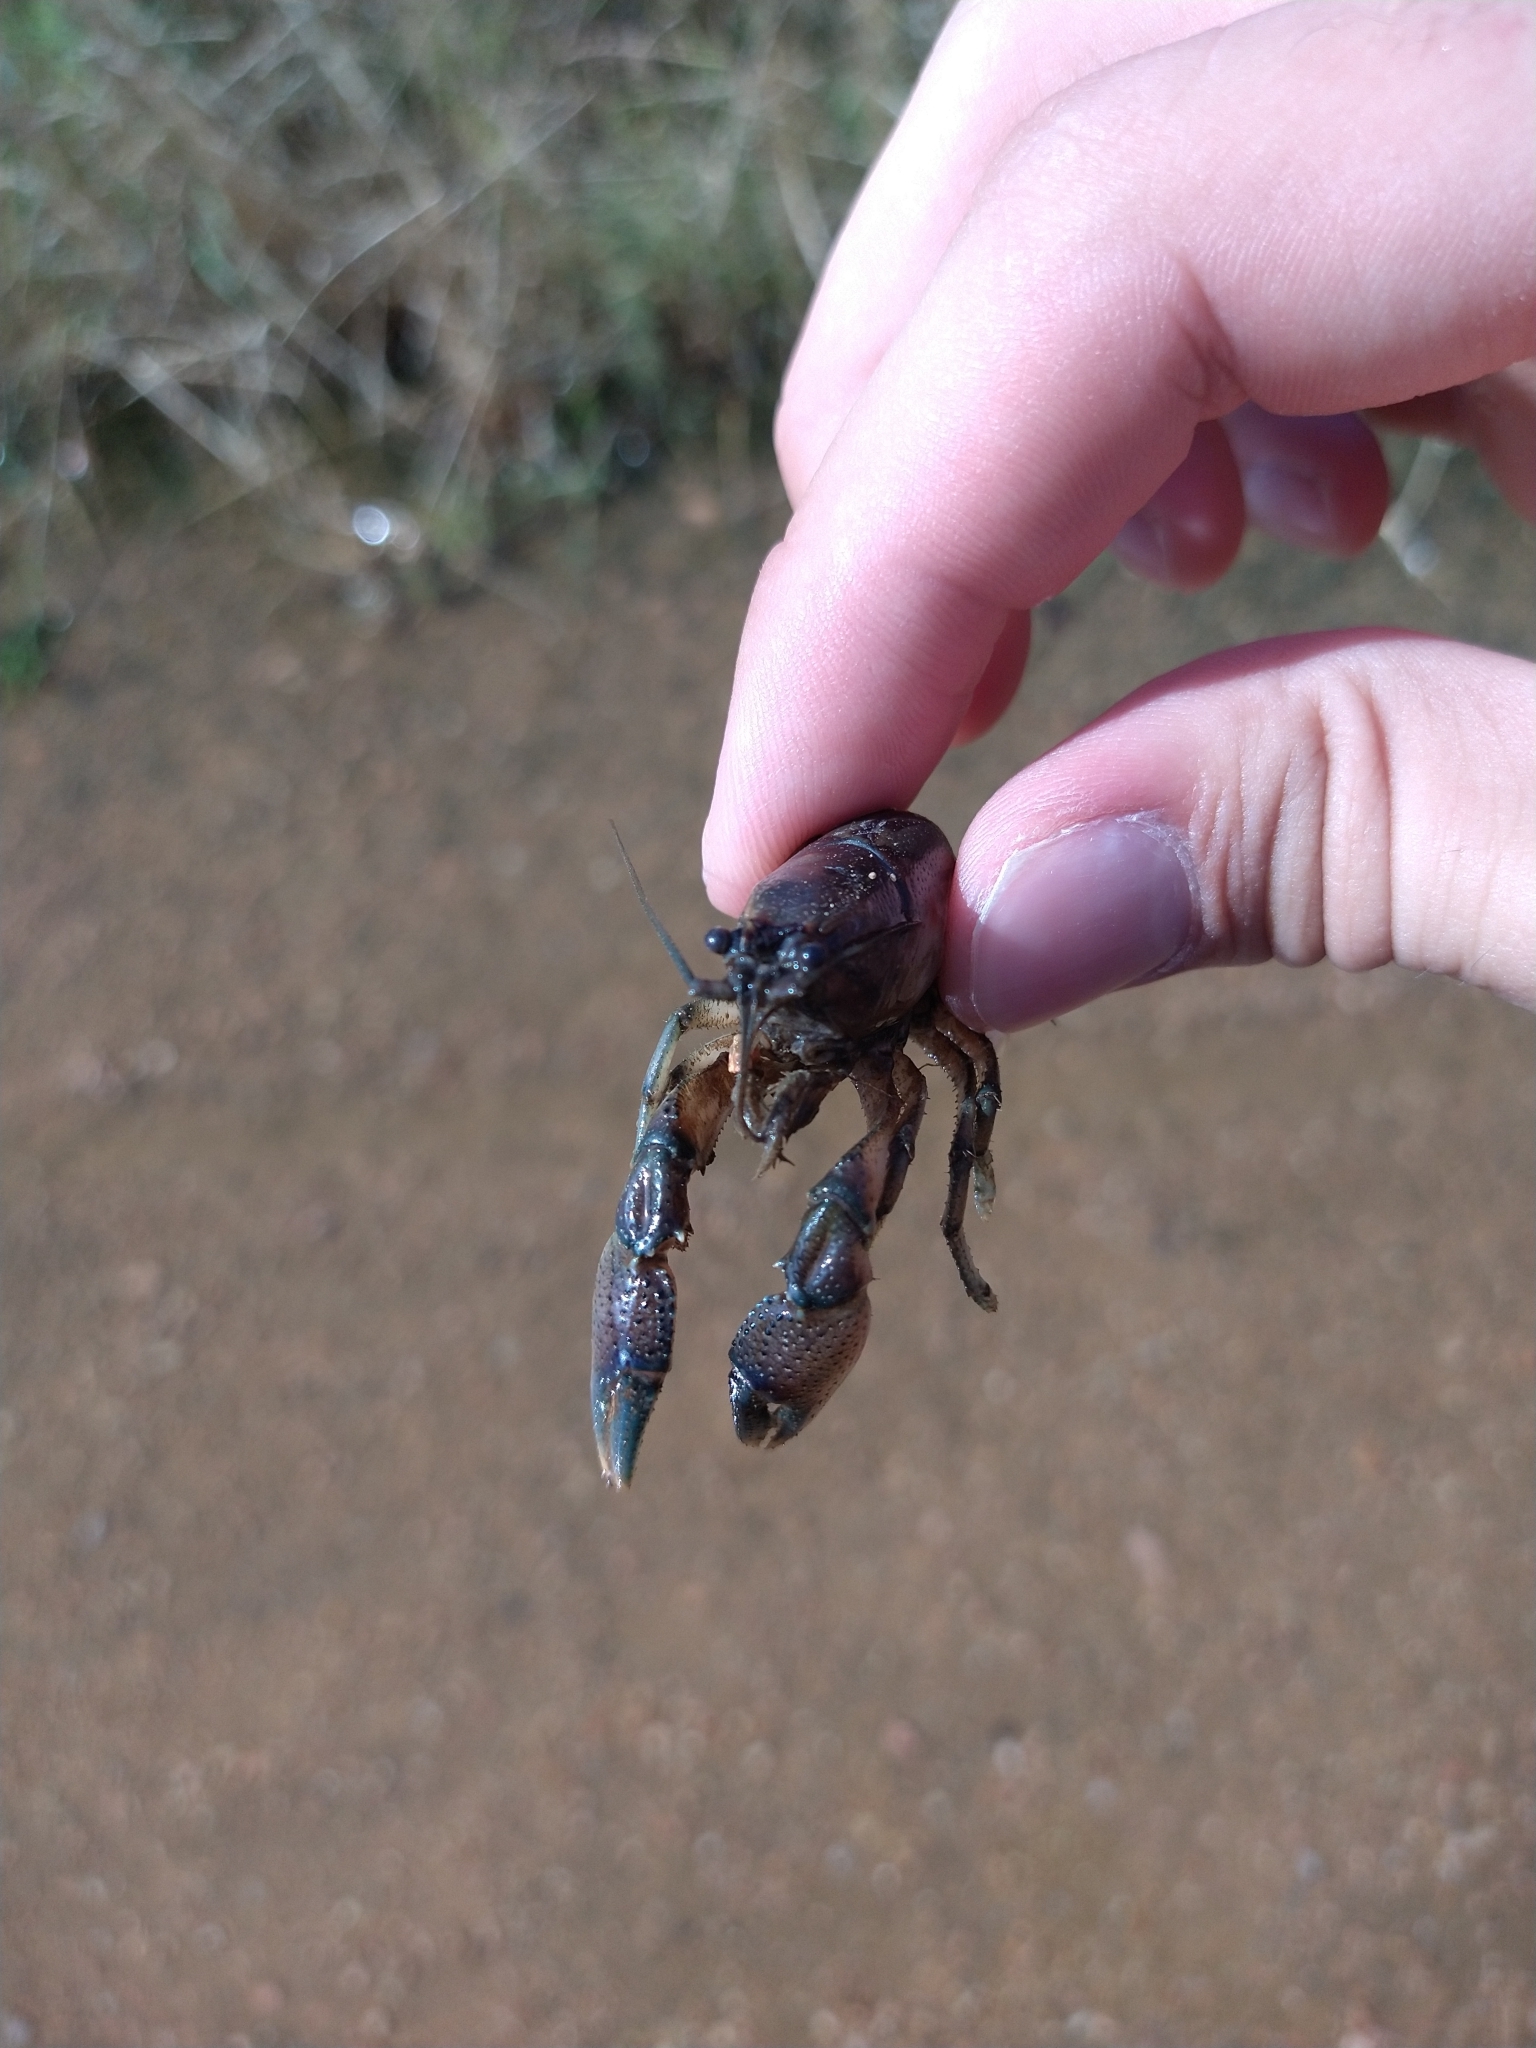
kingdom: Animalia
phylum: Arthropoda
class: Malacostraca
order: Decapoda
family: Cambaridae
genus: Procambarus
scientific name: Procambarus steigmani
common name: Parkhill prairie crayfish
